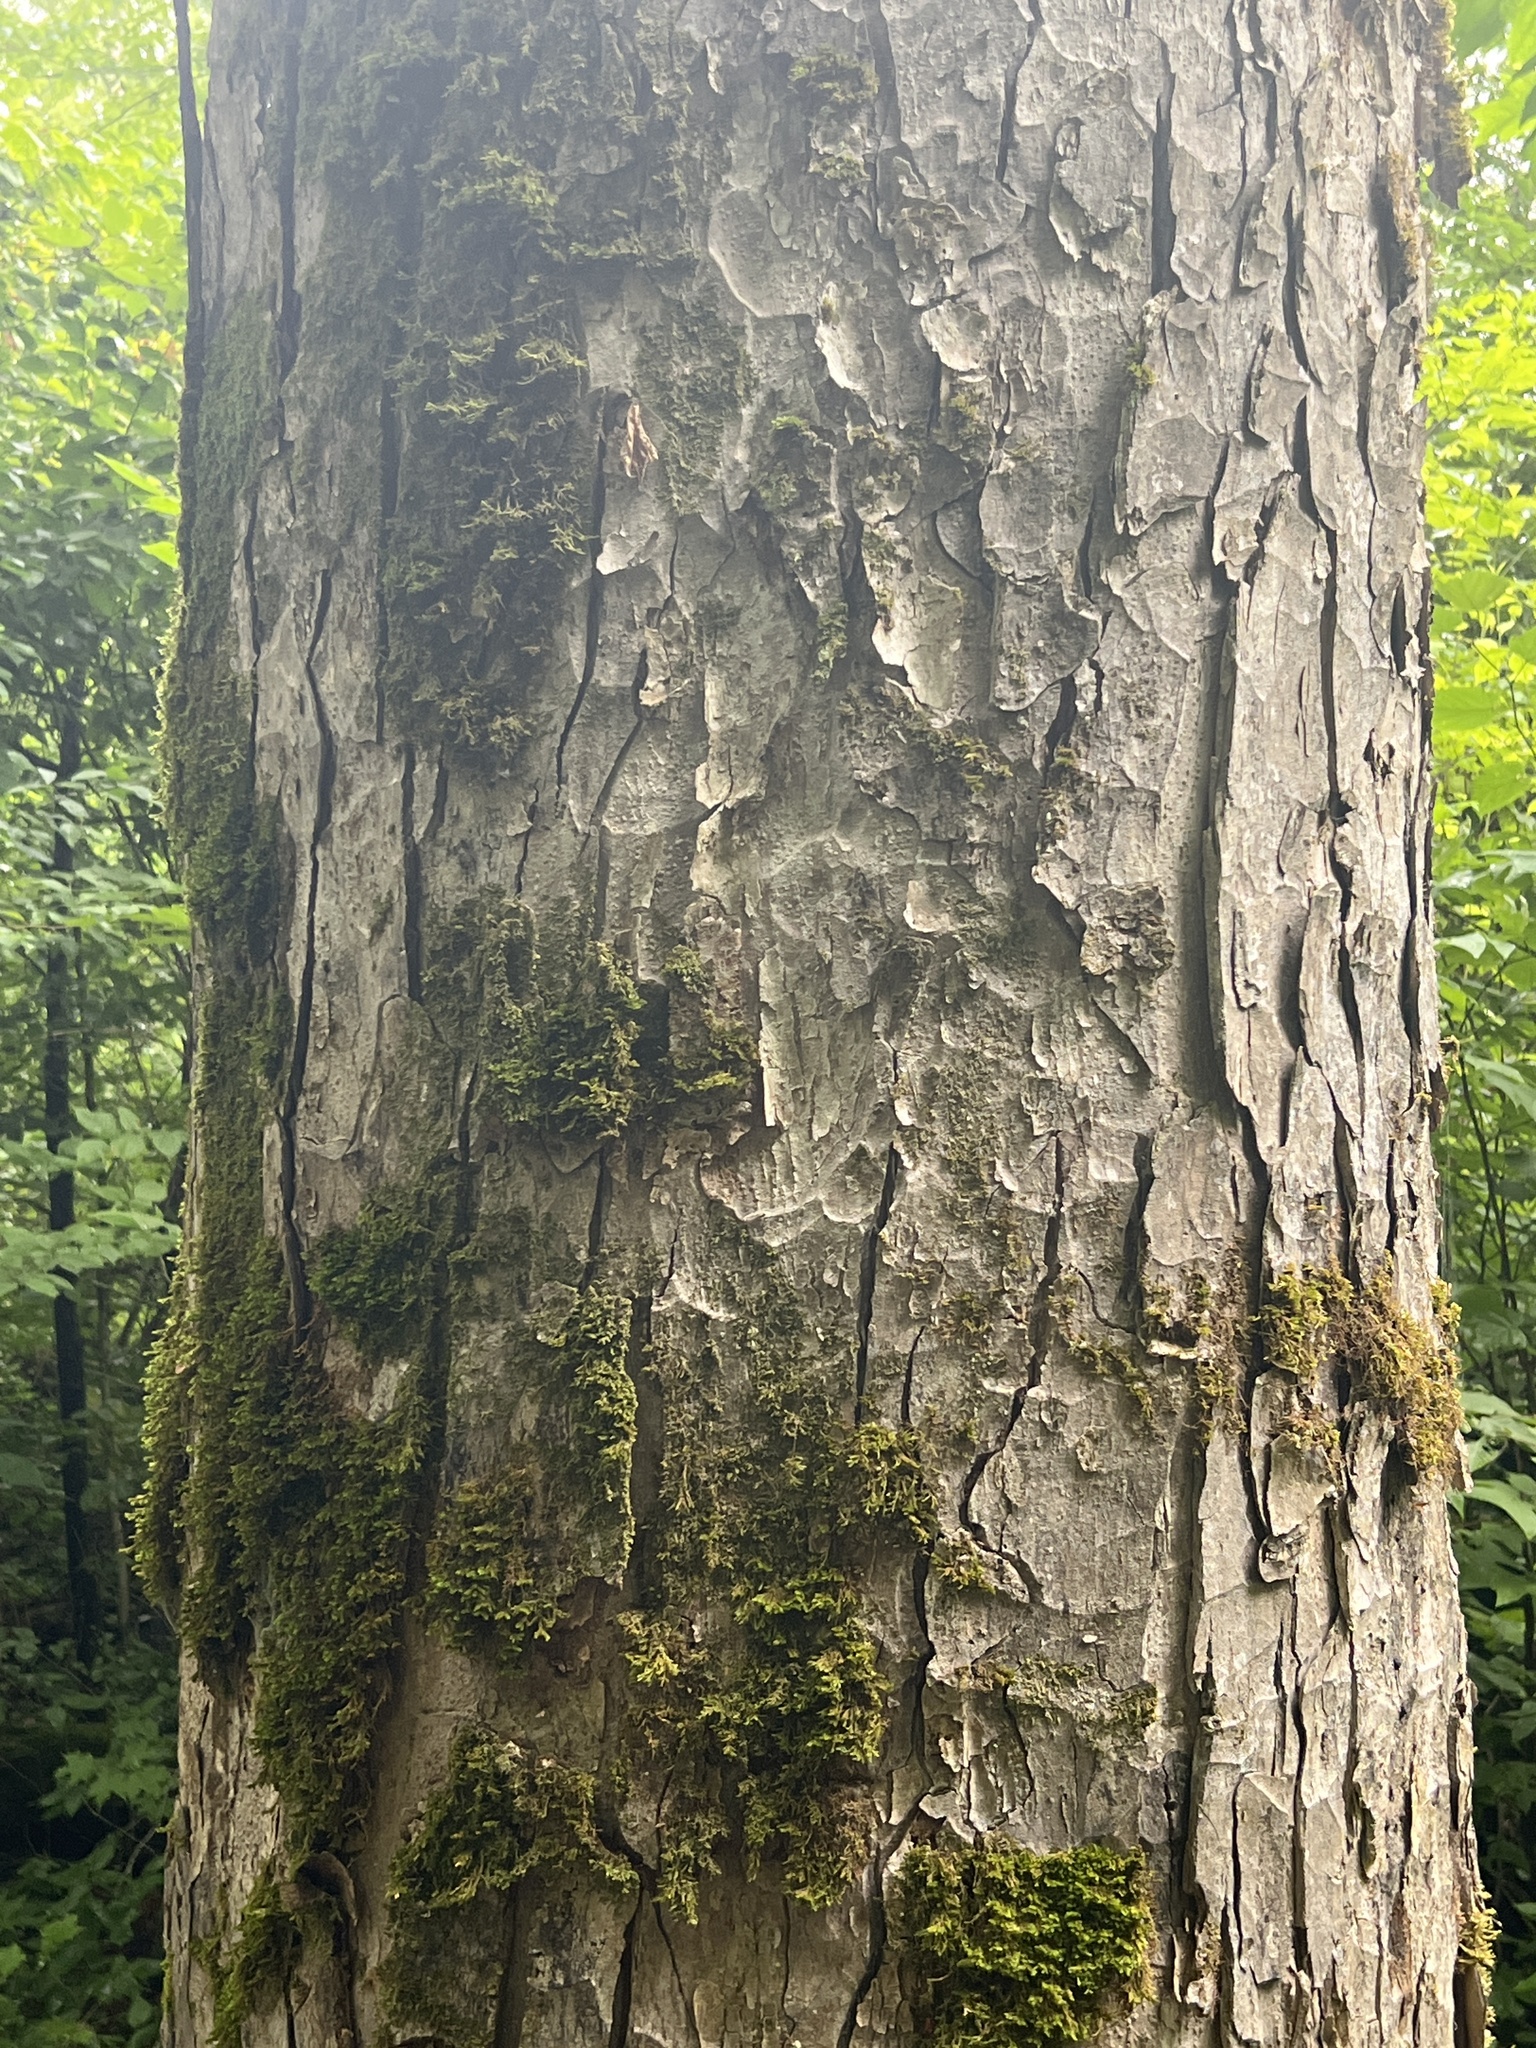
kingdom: Plantae
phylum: Tracheophyta
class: Magnoliopsida
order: Sapindales
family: Sapindaceae
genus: Aesculus
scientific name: Aesculus flava
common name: Yellow buckeye
